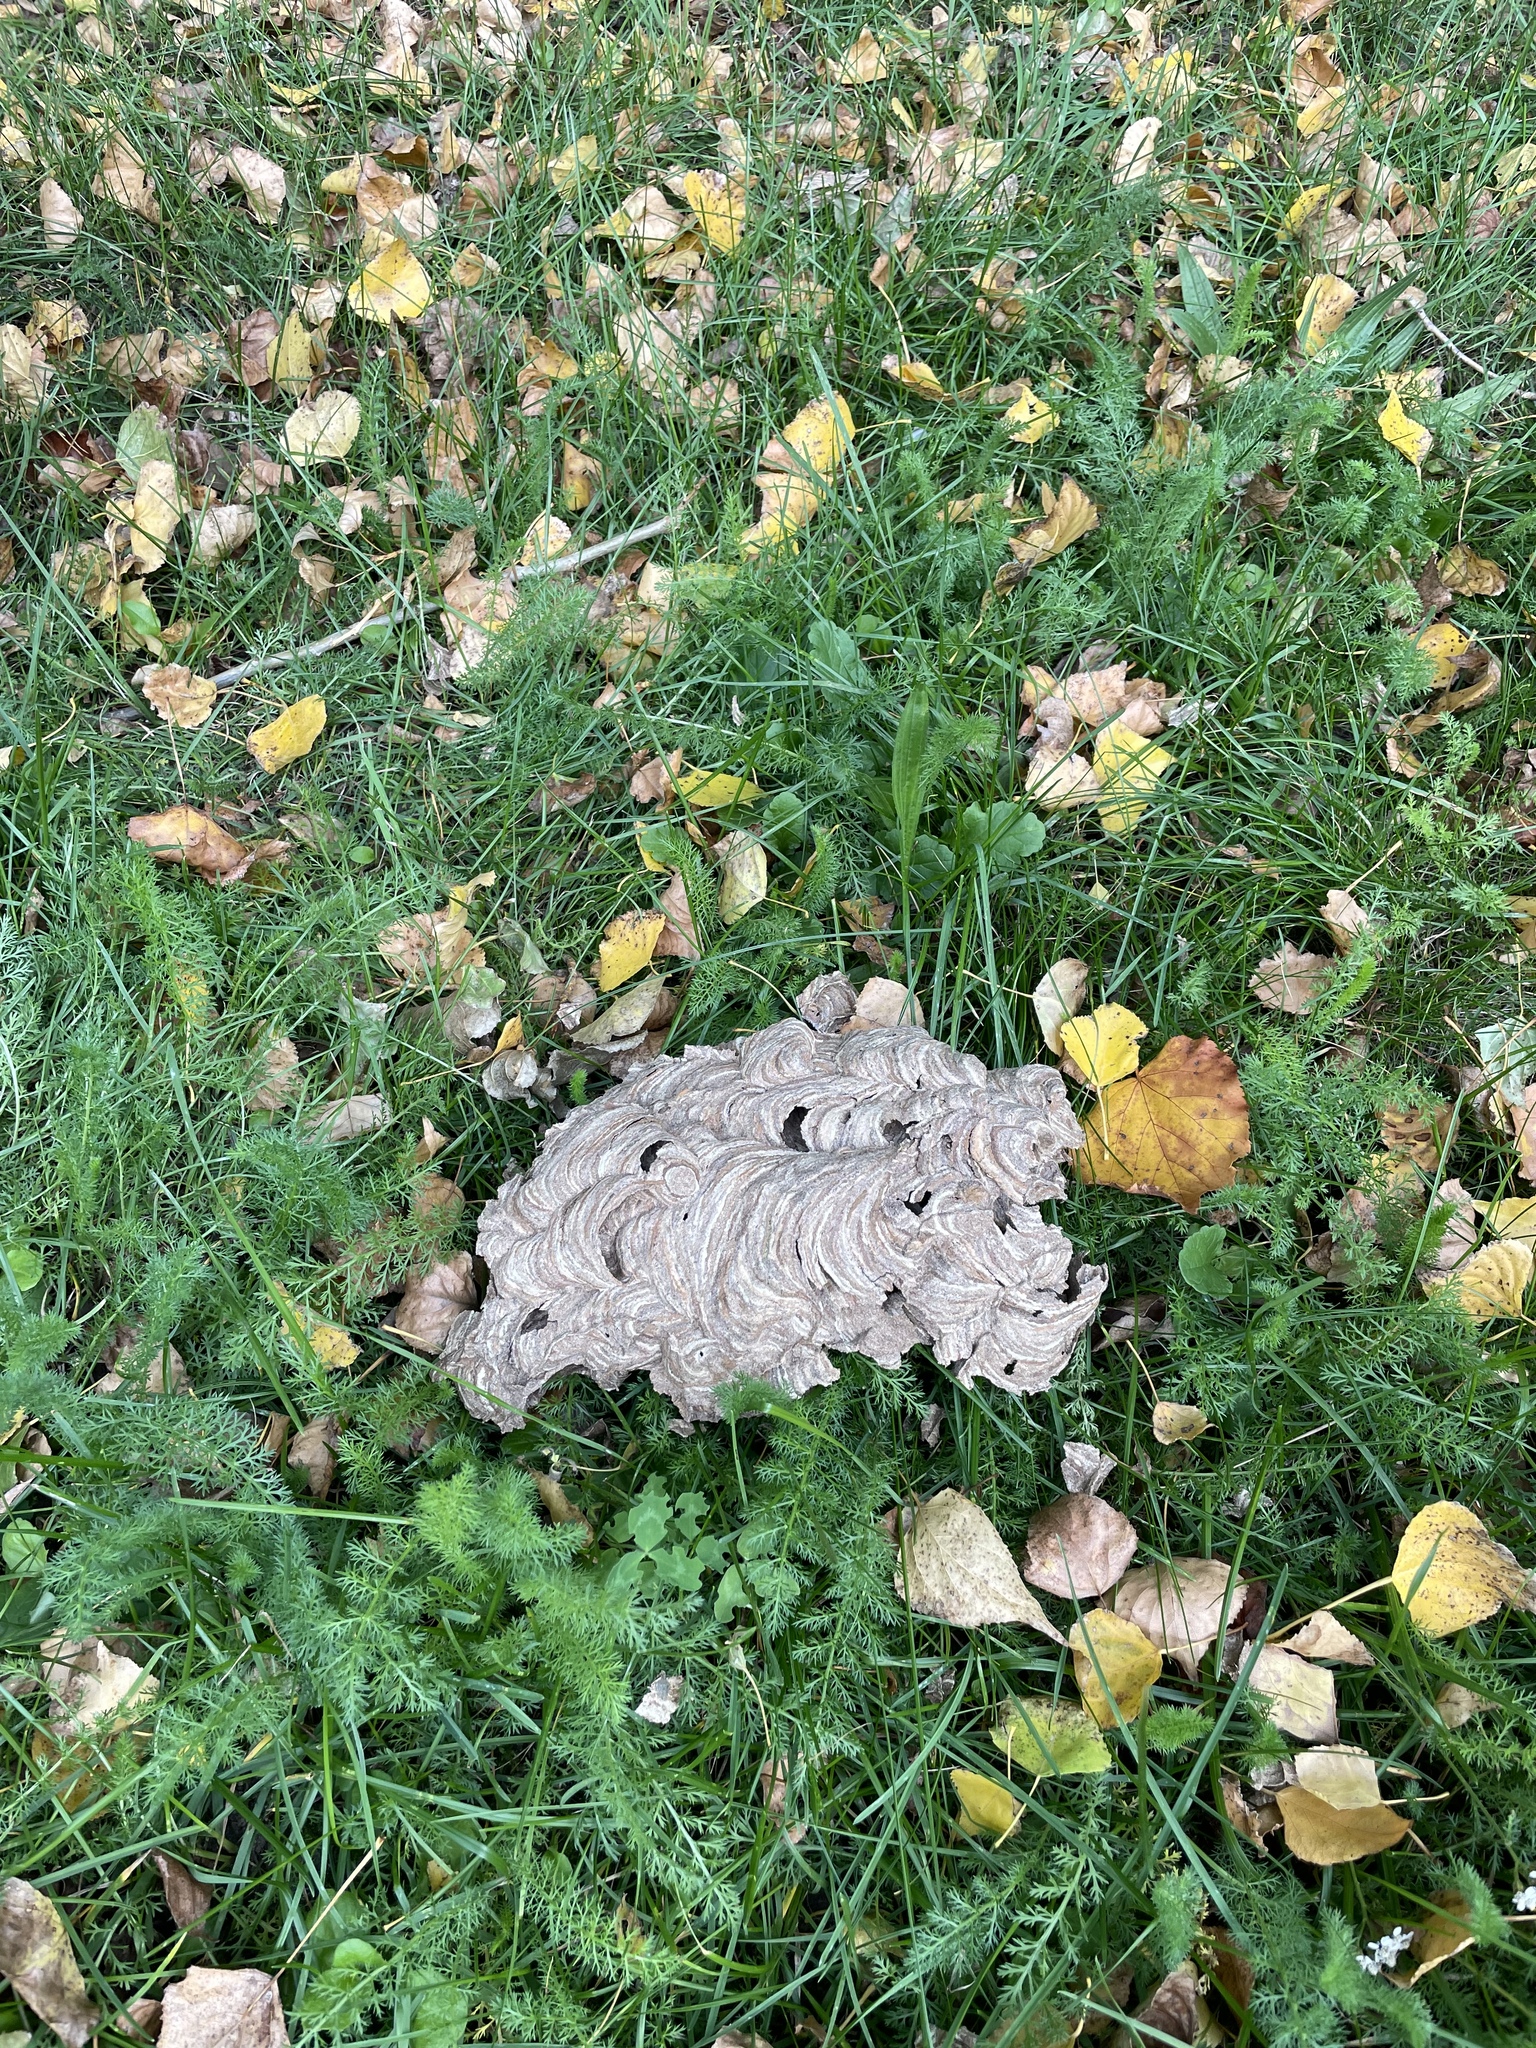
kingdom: Animalia
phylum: Arthropoda
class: Insecta
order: Hymenoptera
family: Vespidae
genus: Vespa
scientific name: Vespa velutina
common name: Asian hornet
